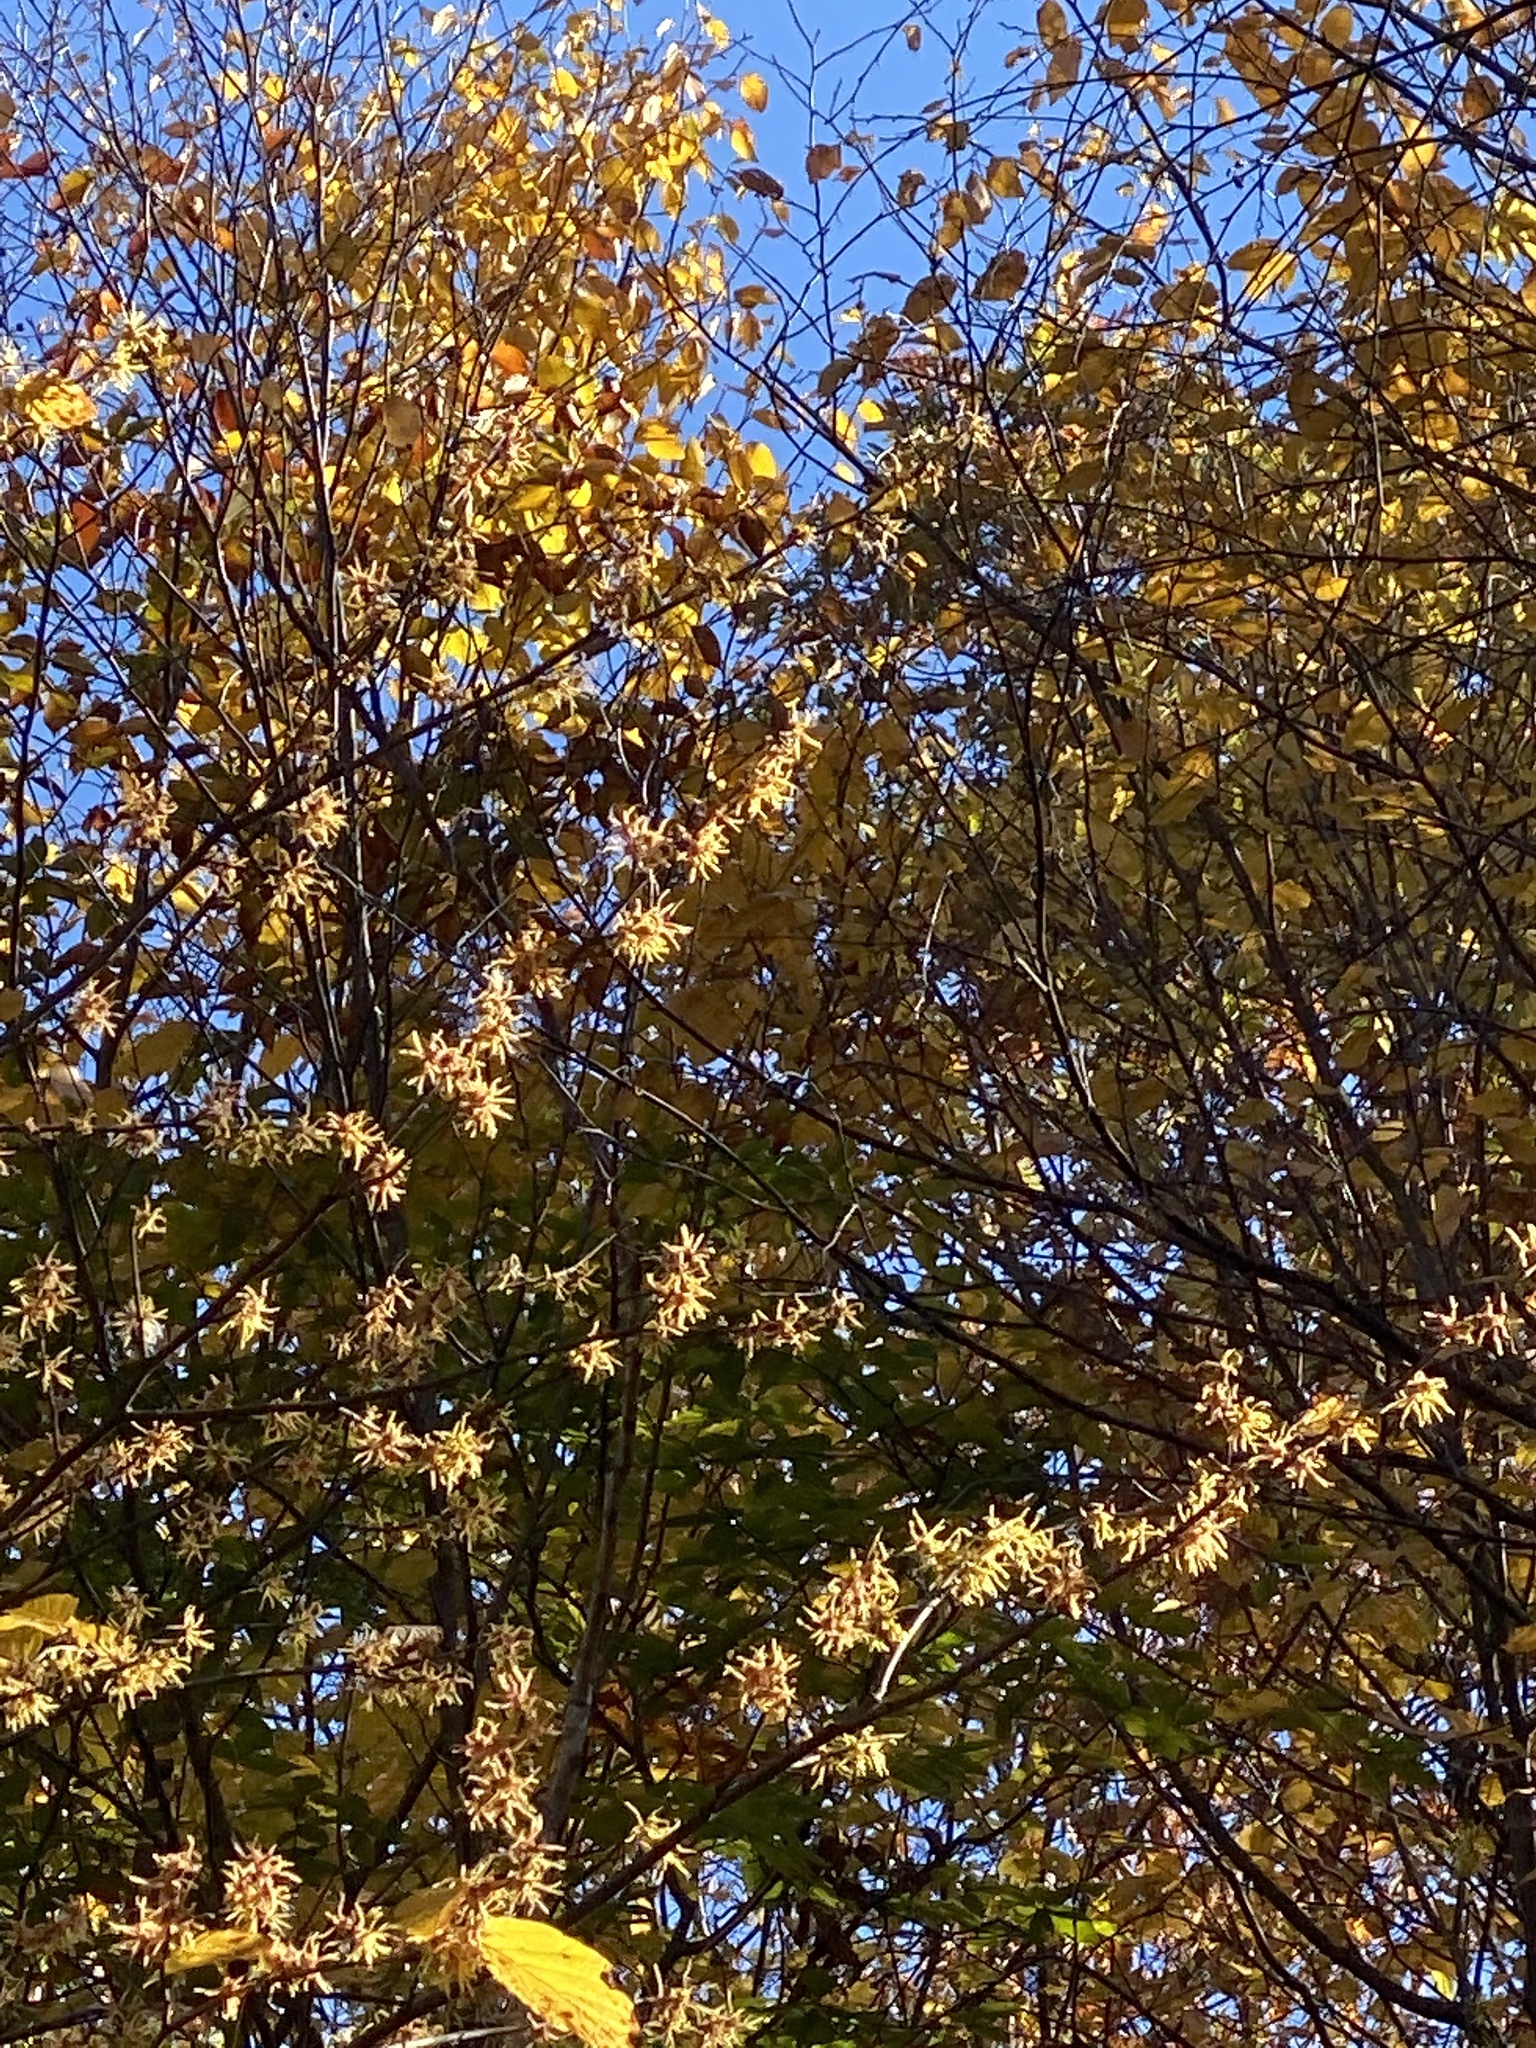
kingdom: Plantae
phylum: Tracheophyta
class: Magnoliopsida
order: Saxifragales
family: Hamamelidaceae
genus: Hamamelis
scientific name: Hamamelis virginiana
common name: Witch-hazel
